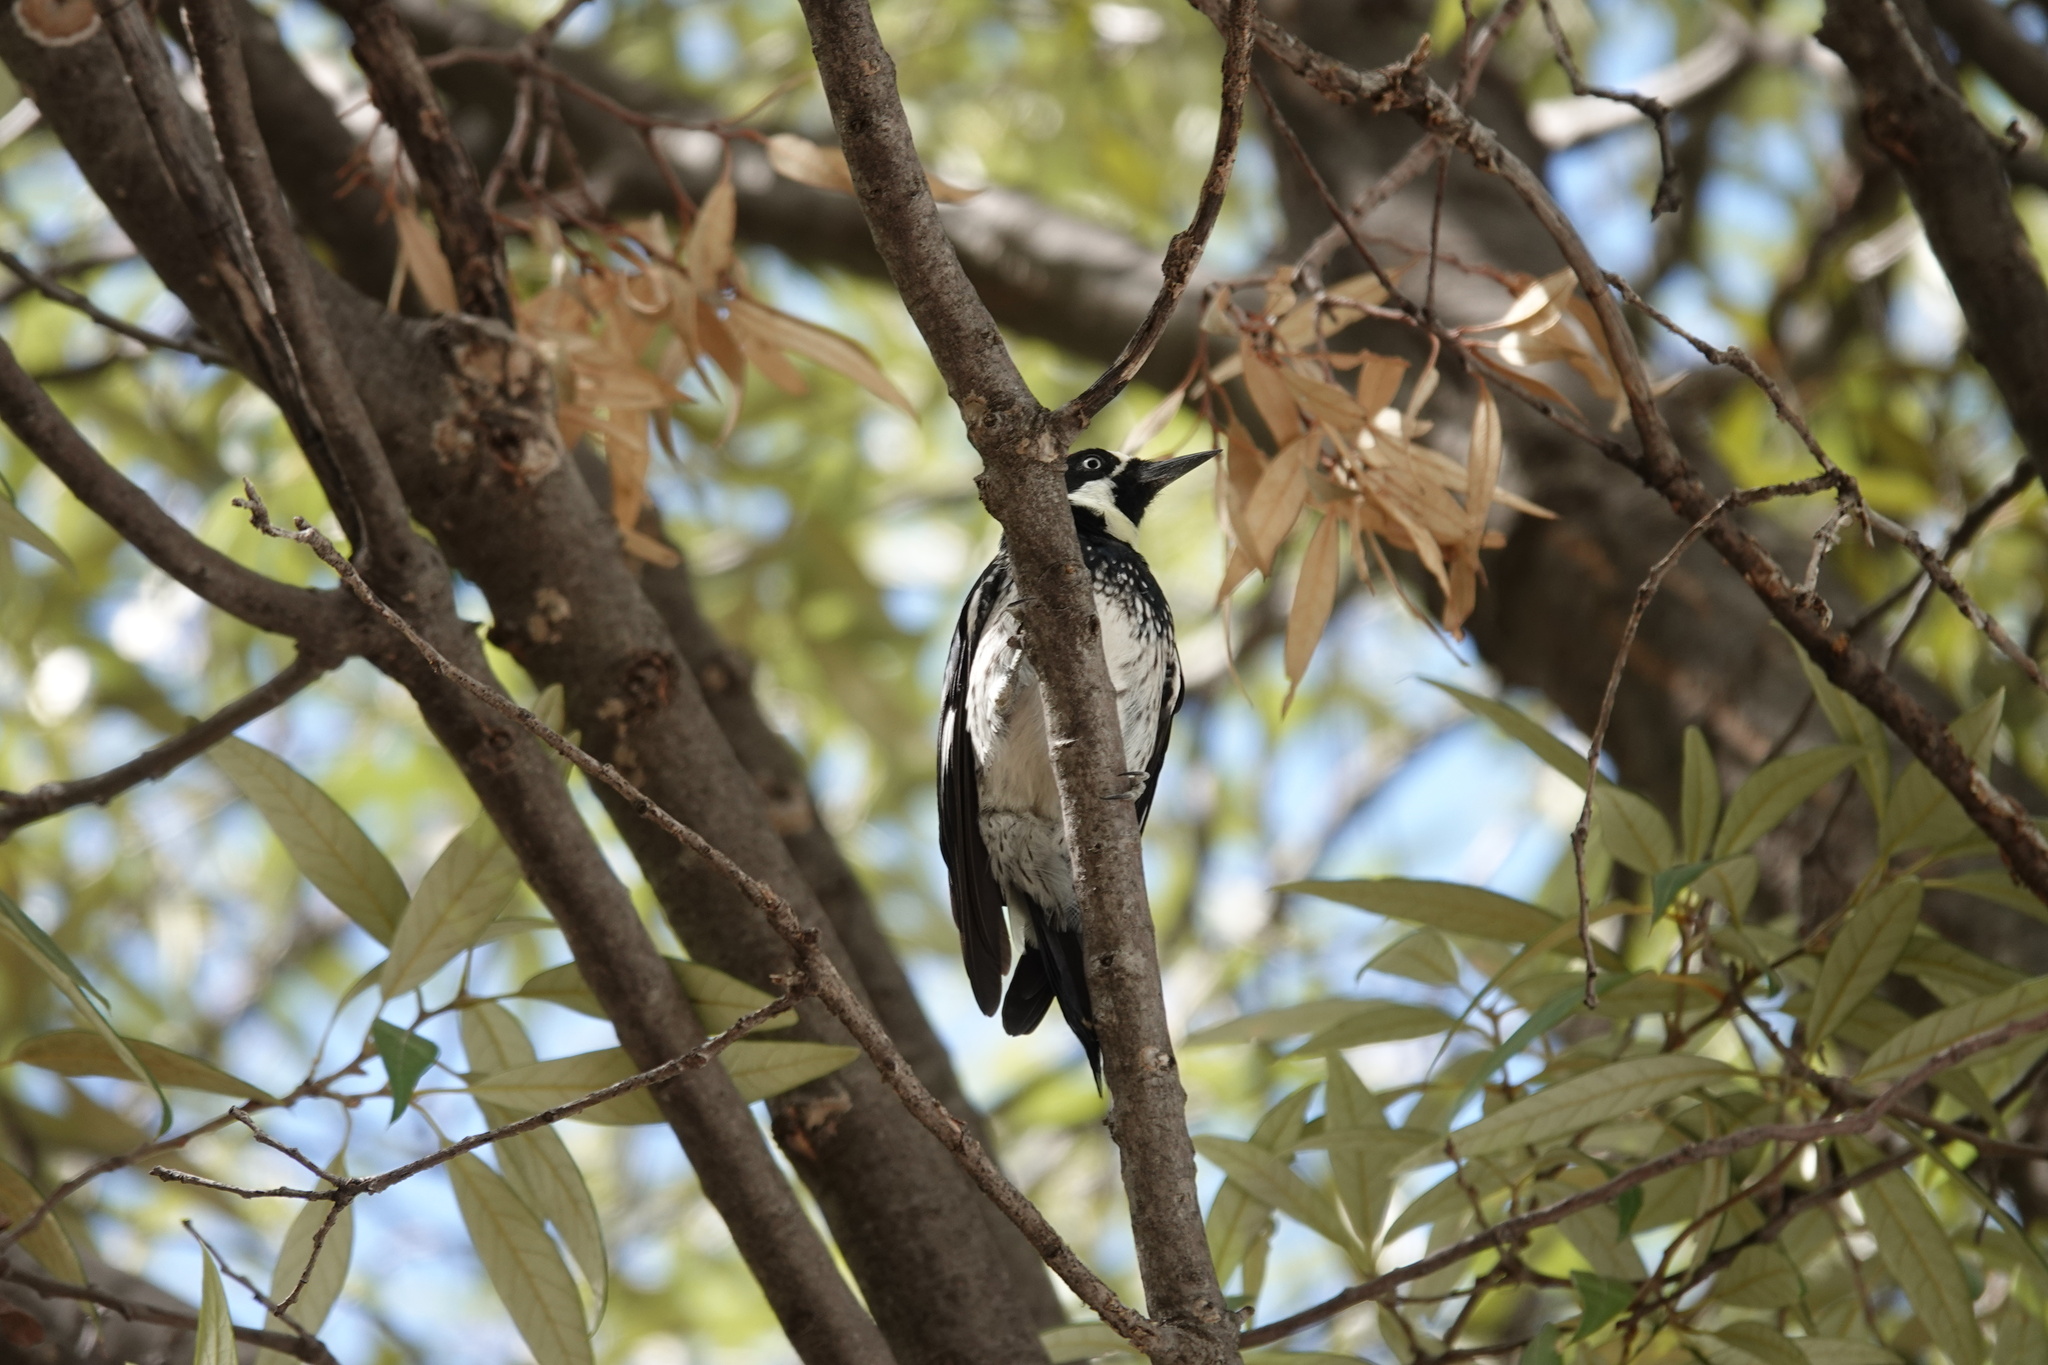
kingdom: Animalia
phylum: Chordata
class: Aves
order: Piciformes
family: Picidae
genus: Melanerpes
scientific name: Melanerpes formicivorus
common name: Acorn woodpecker
